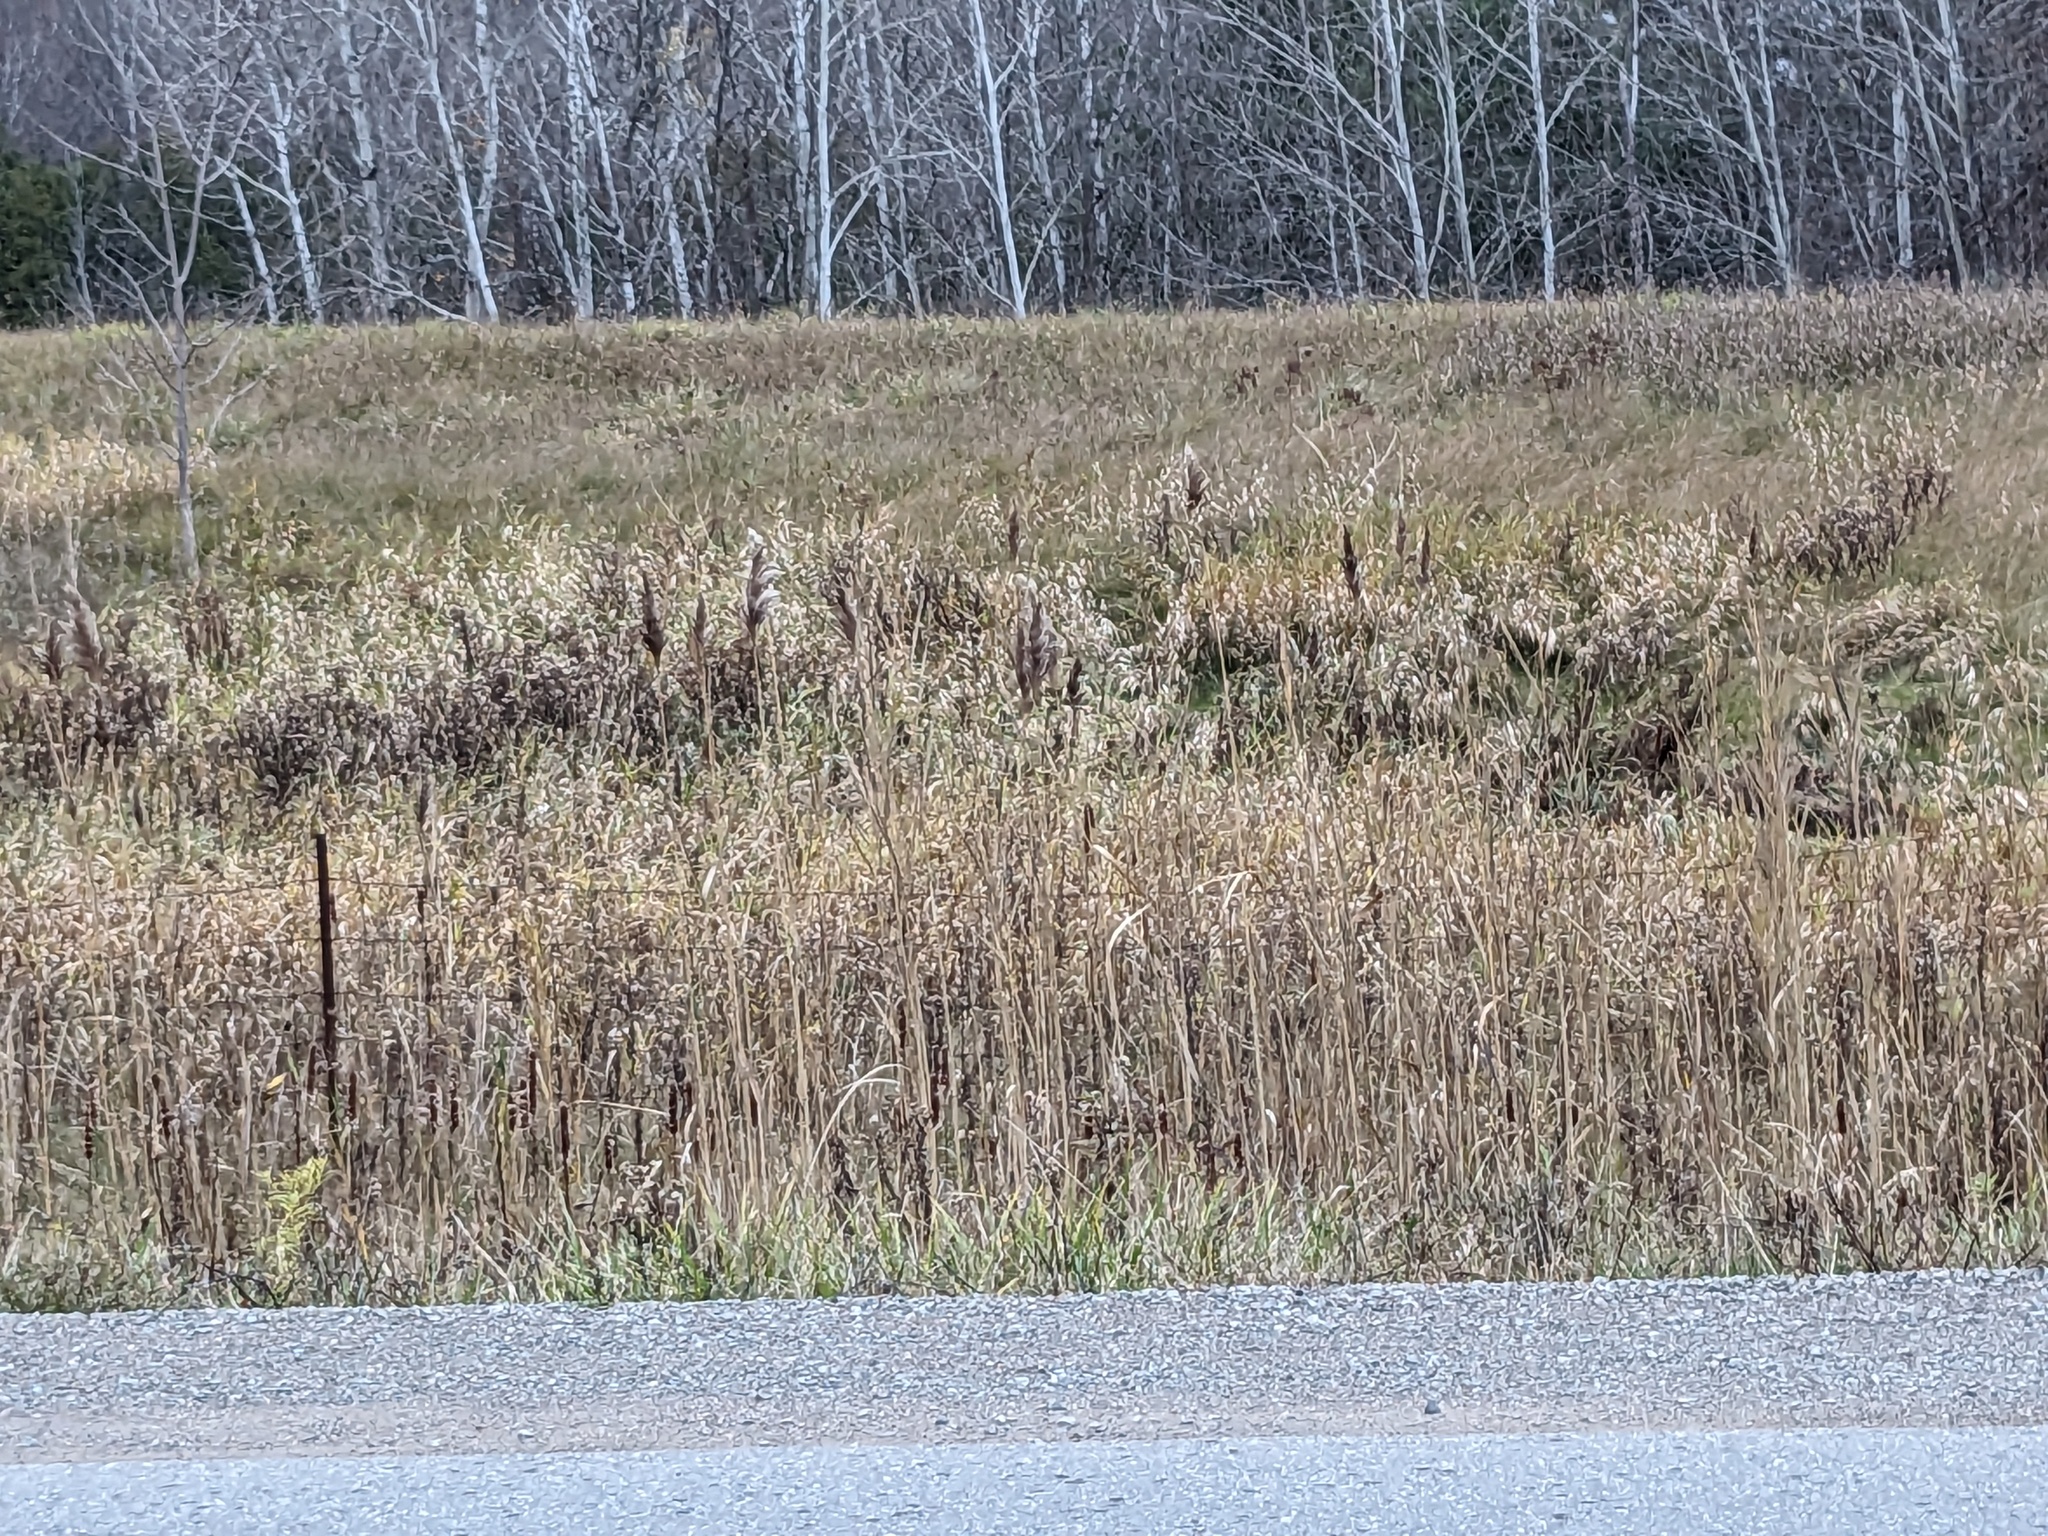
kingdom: Plantae
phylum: Tracheophyta
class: Liliopsida
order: Poales
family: Poaceae
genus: Phragmites
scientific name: Phragmites australis
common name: Common reed
